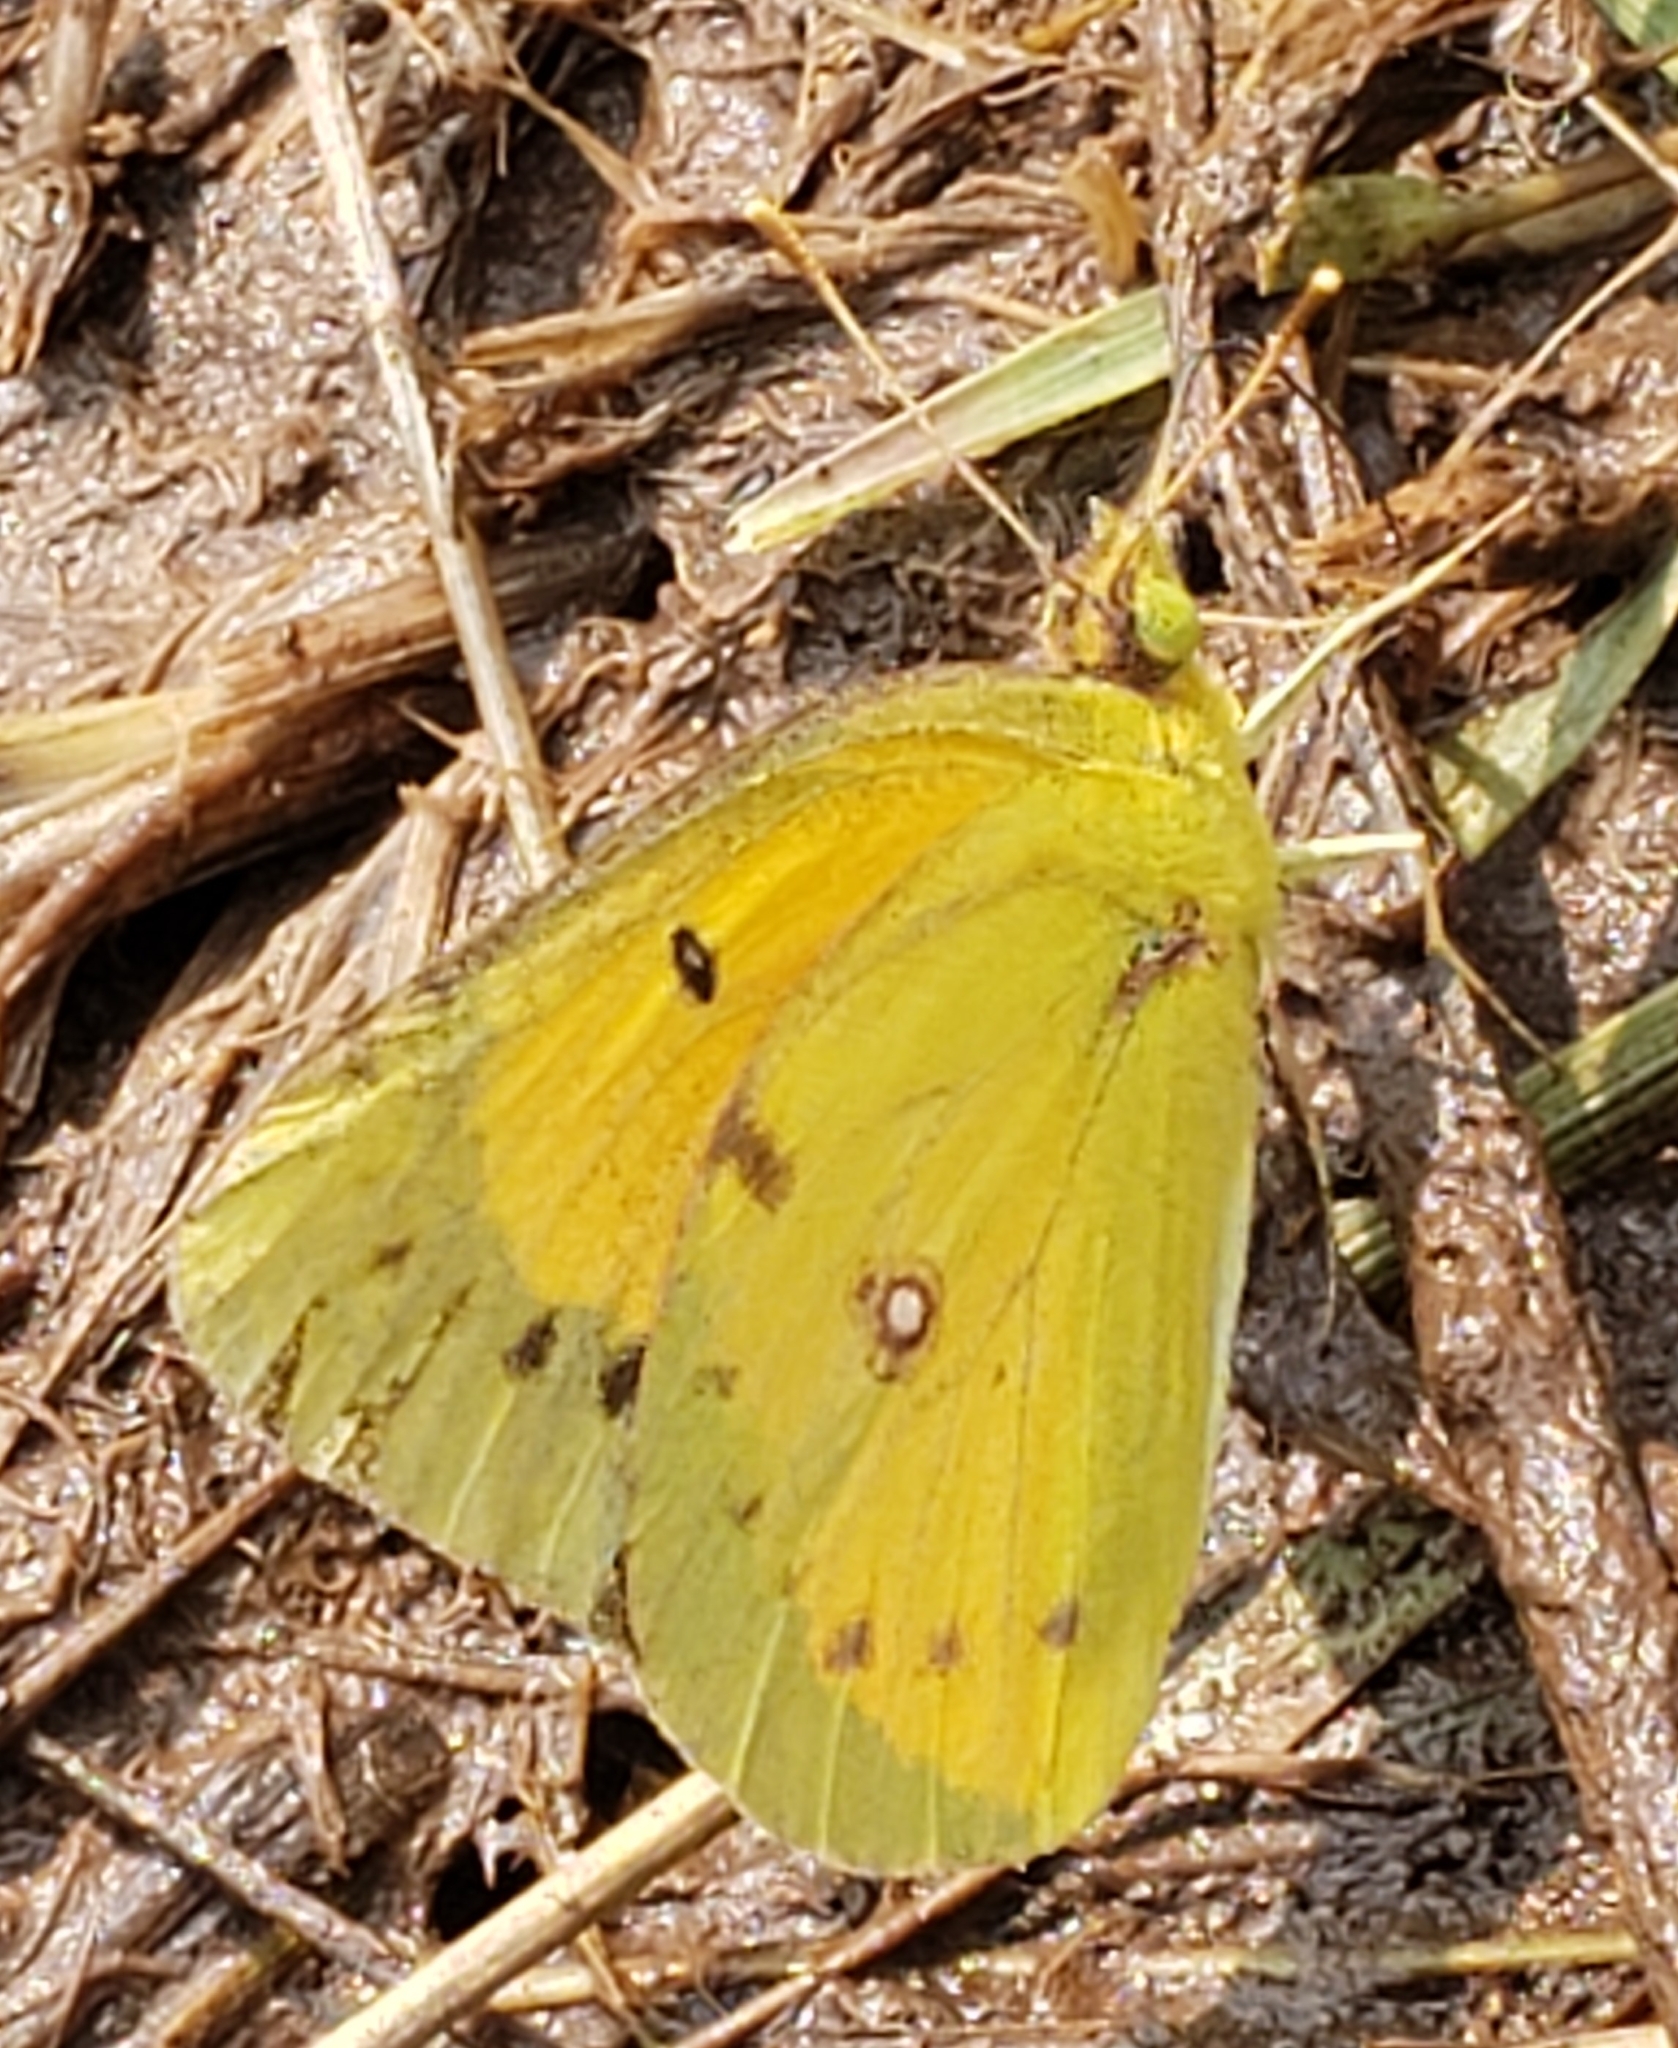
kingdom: Animalia
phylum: Arthropoda
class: Insecta
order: Lepidoptera
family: Pieridae
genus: Colias
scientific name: Colias eurytheme
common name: Alfalfa butterfly
